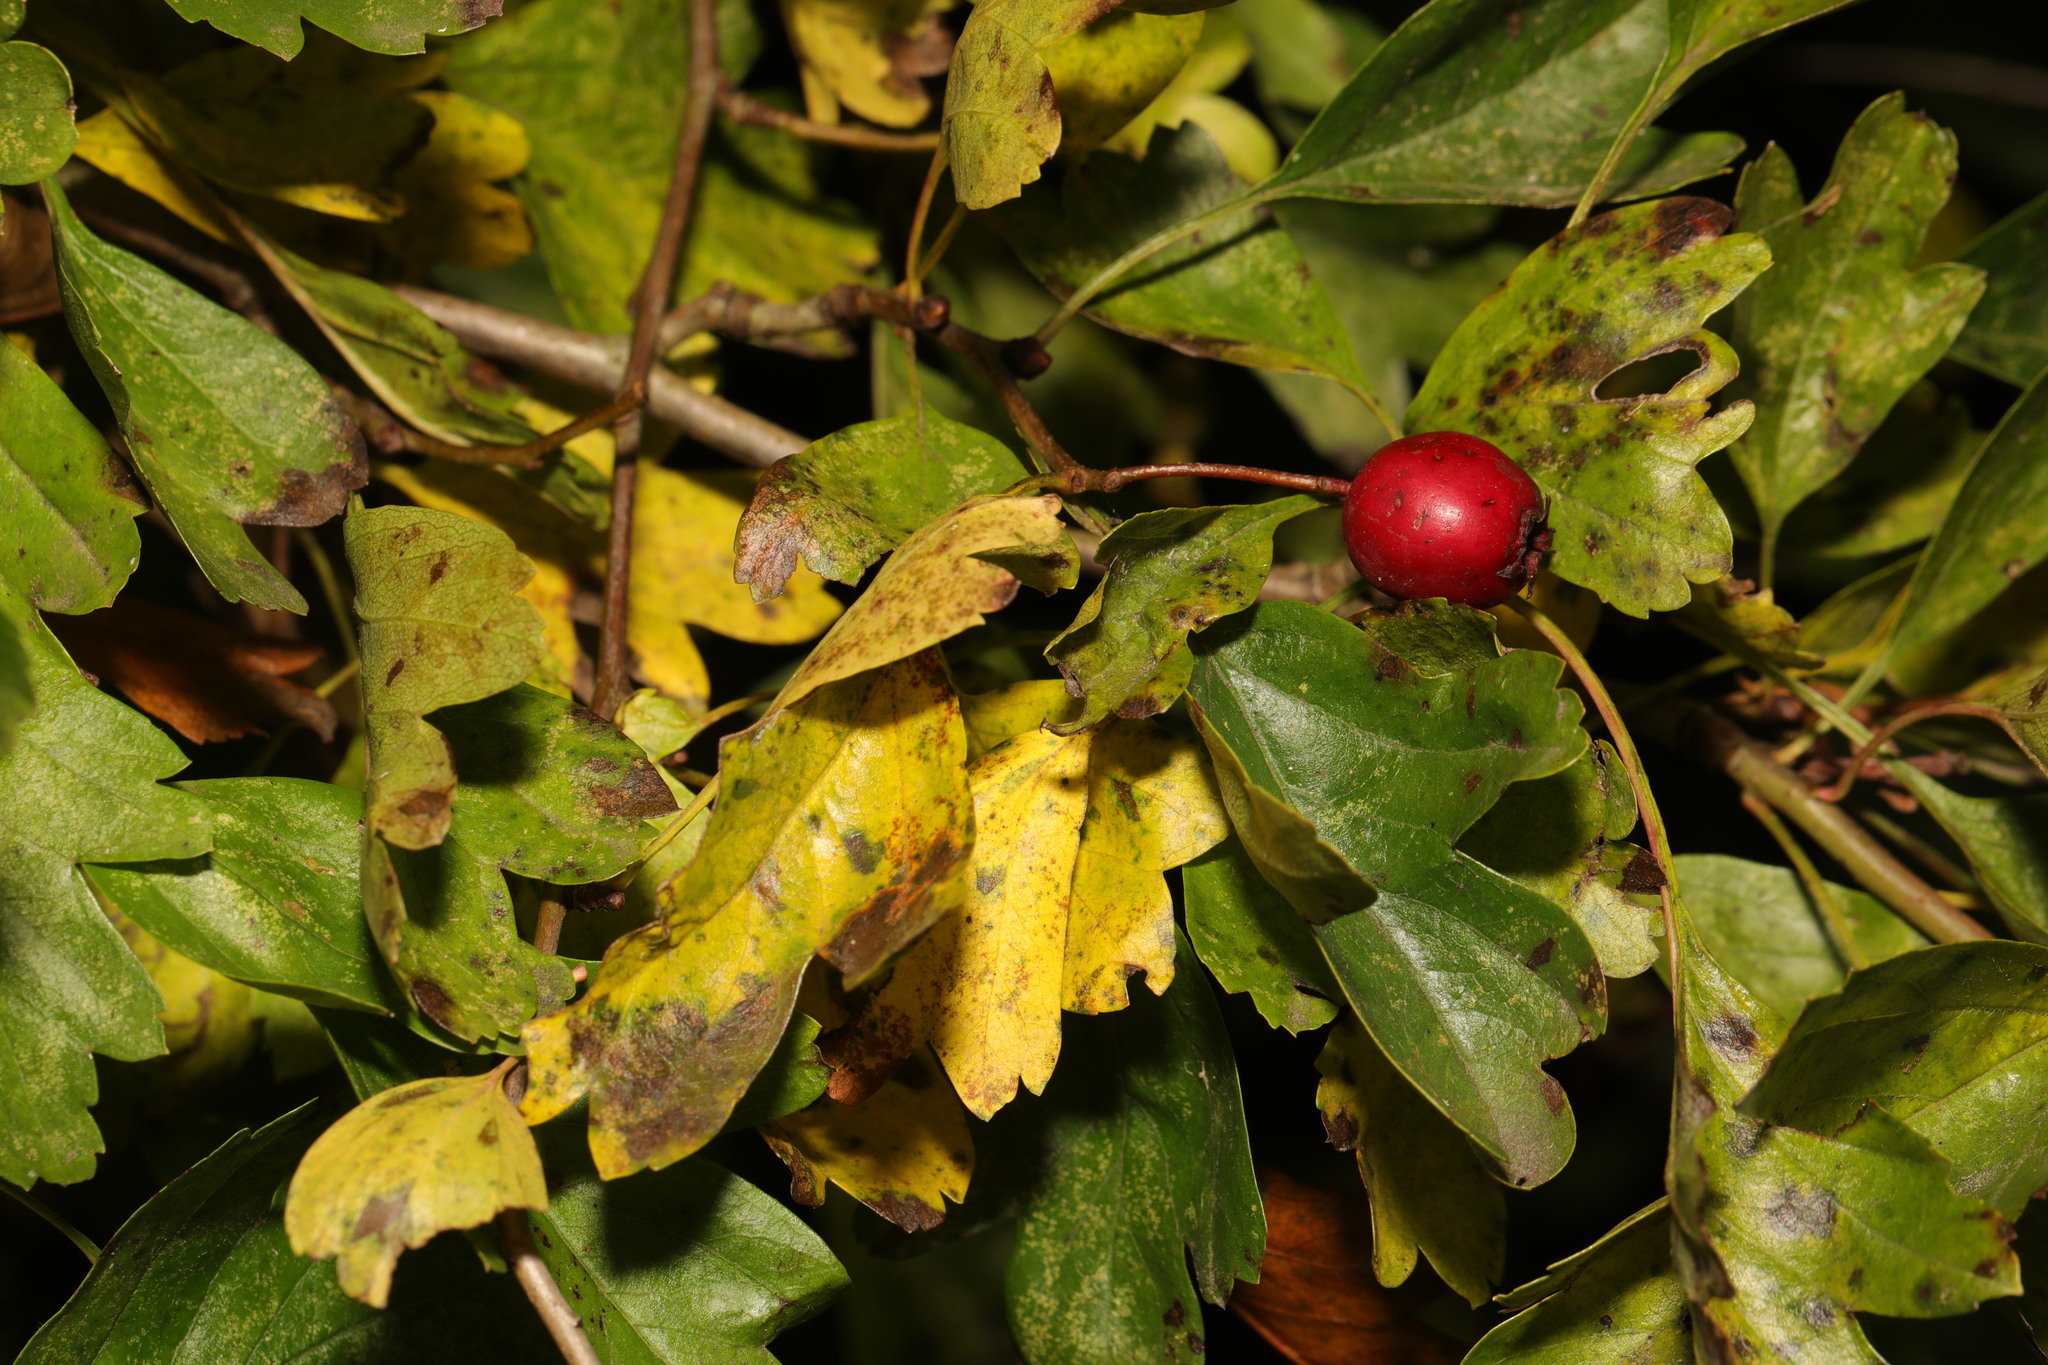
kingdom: Plantae
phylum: Tracheophyta
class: Magnoliopsida
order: Rosales
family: Rosaceae
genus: Crataegus
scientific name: Crataegus monogyna
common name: Hawthorn
